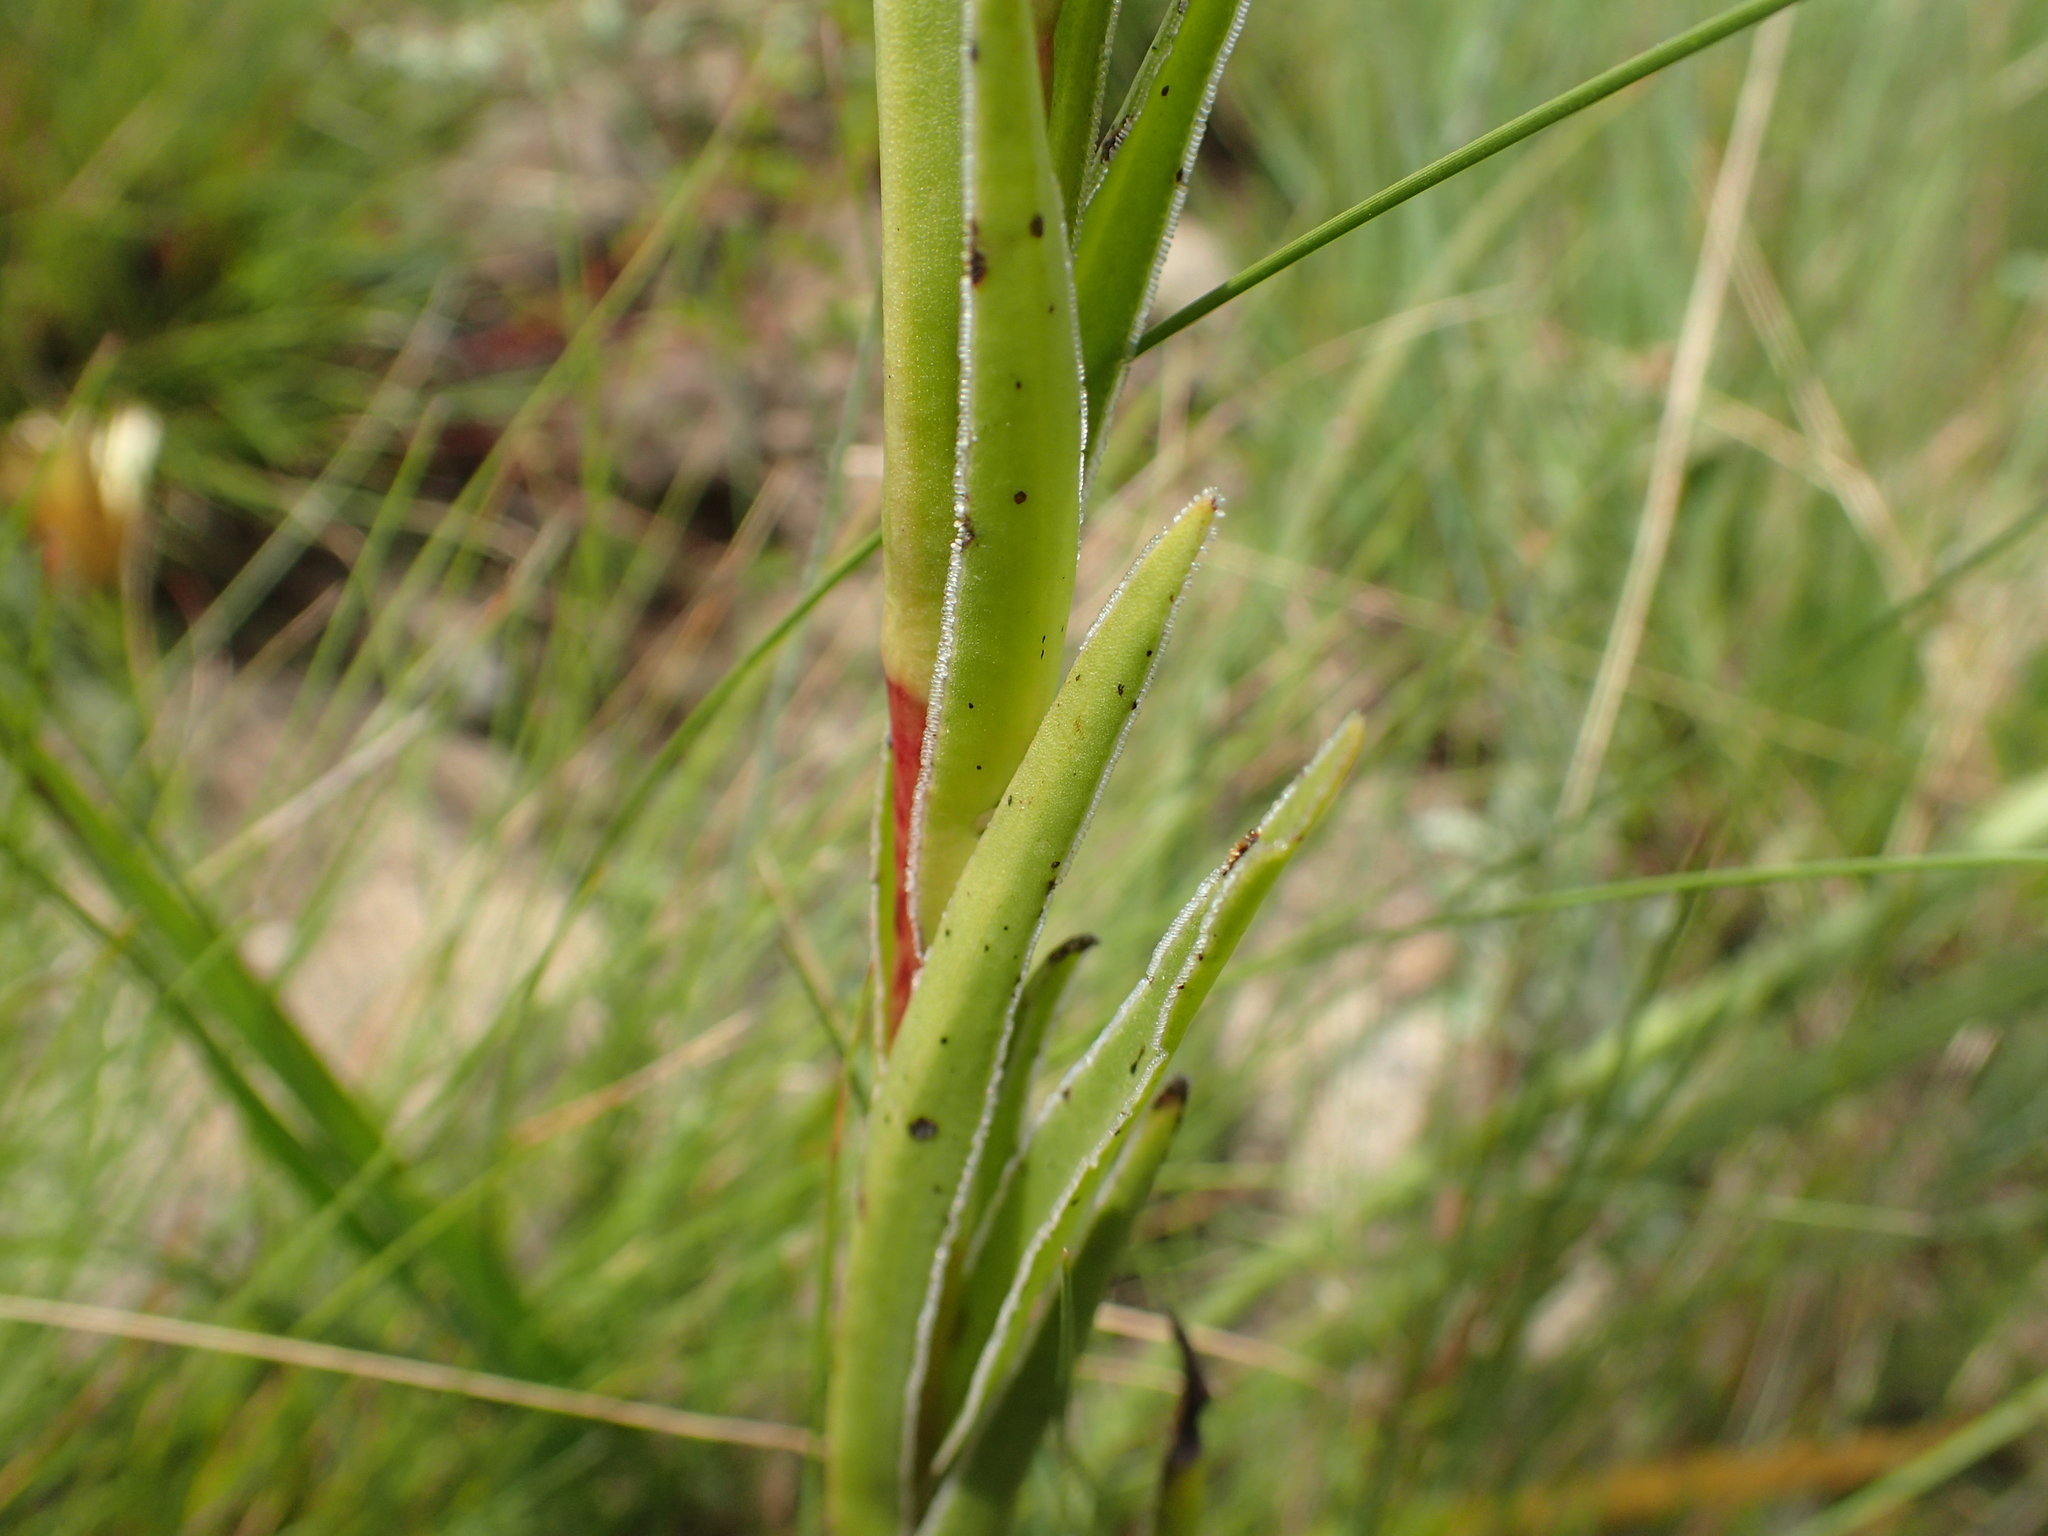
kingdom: Plantae
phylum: Tracheophyta
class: Magnoliopsida
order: Saxifragales
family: Crassulaceae
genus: Crassula
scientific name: Crassula vaginata
